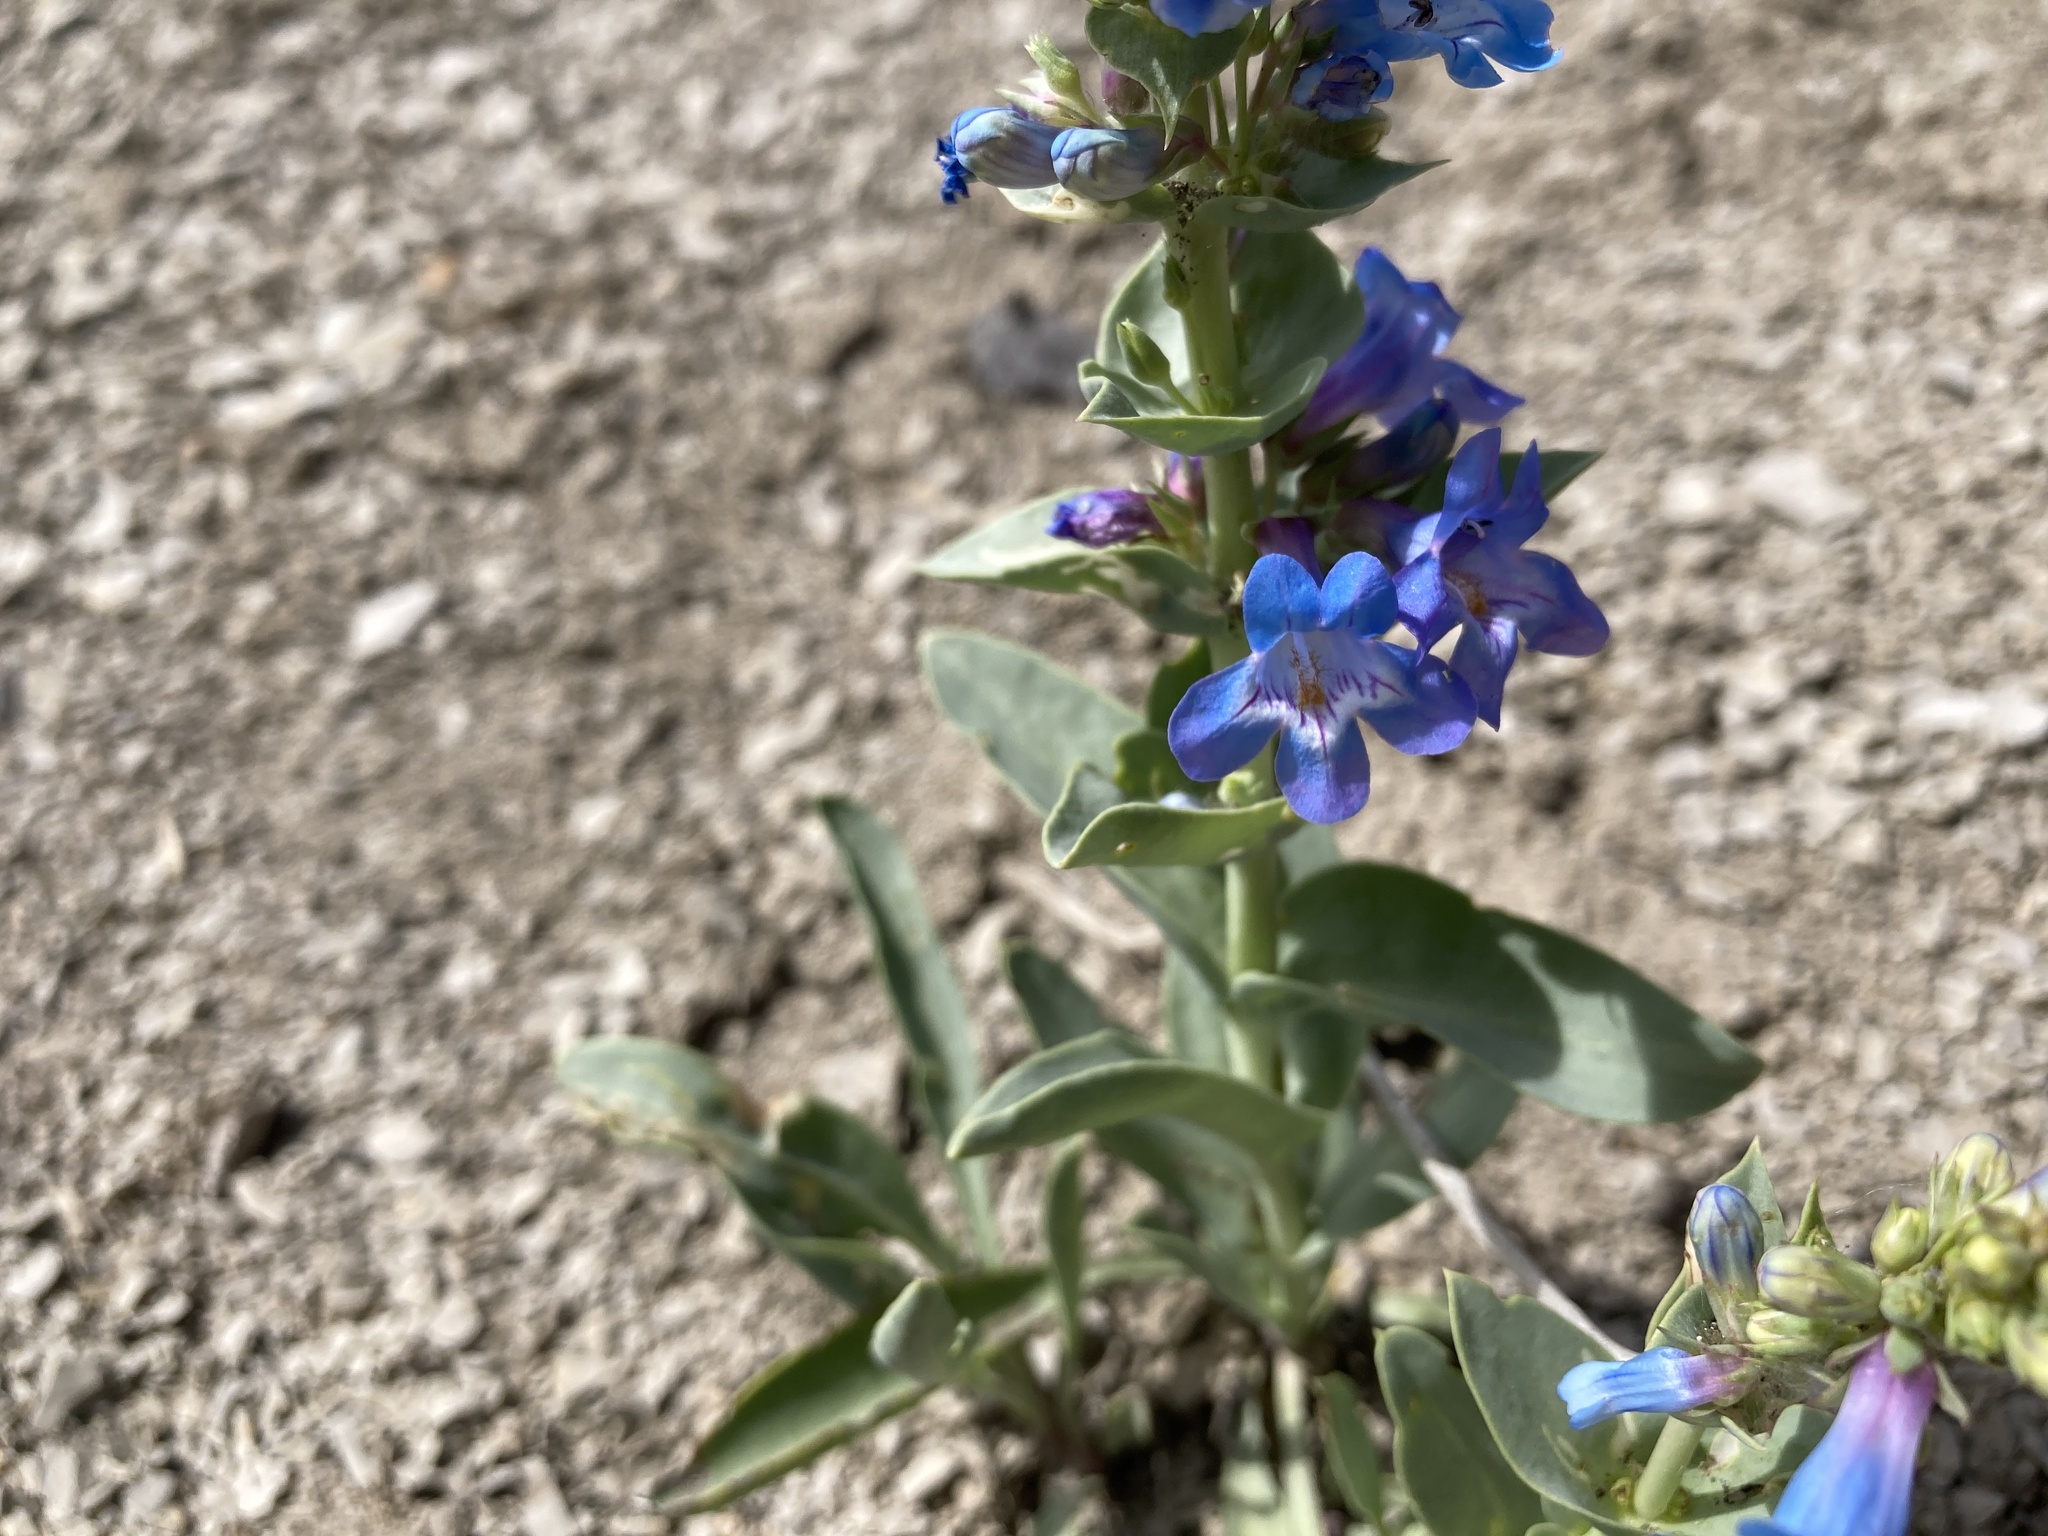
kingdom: Plantae
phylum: Tracheophyta
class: Magnoliopsida
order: Lamiales
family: Plantaginaceae
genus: Penstemon
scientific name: Penstemon nitidus
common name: Shining penstemon
